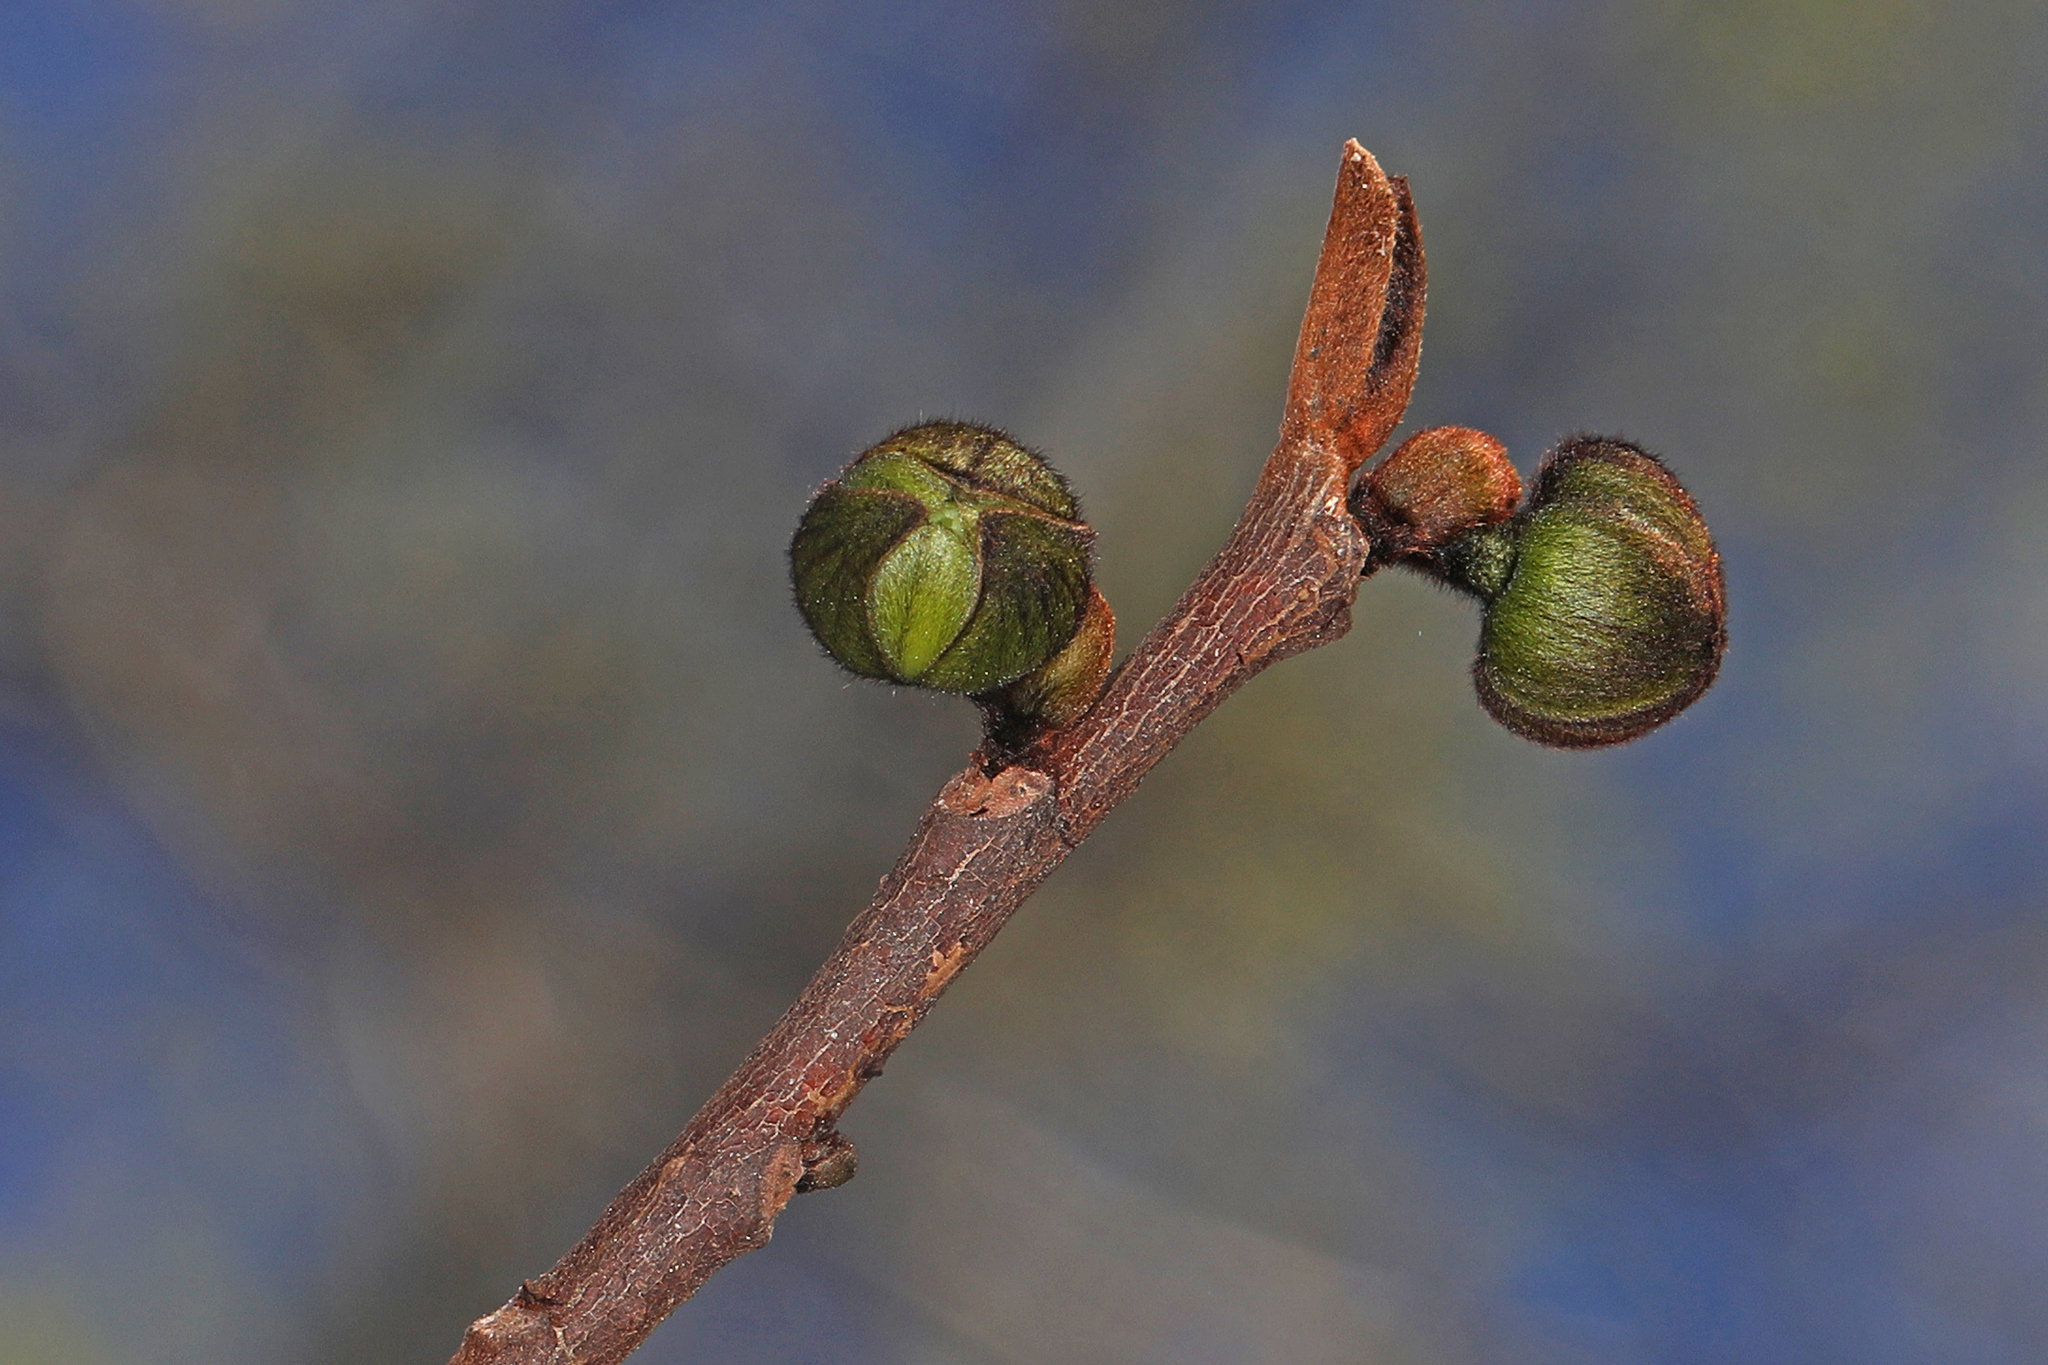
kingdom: Plantae
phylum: Tracheophyta
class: Magnoliopsida
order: Magnoliales
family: Annonaceae
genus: Asimina
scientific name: Asimina triloba
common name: Dog-banana
